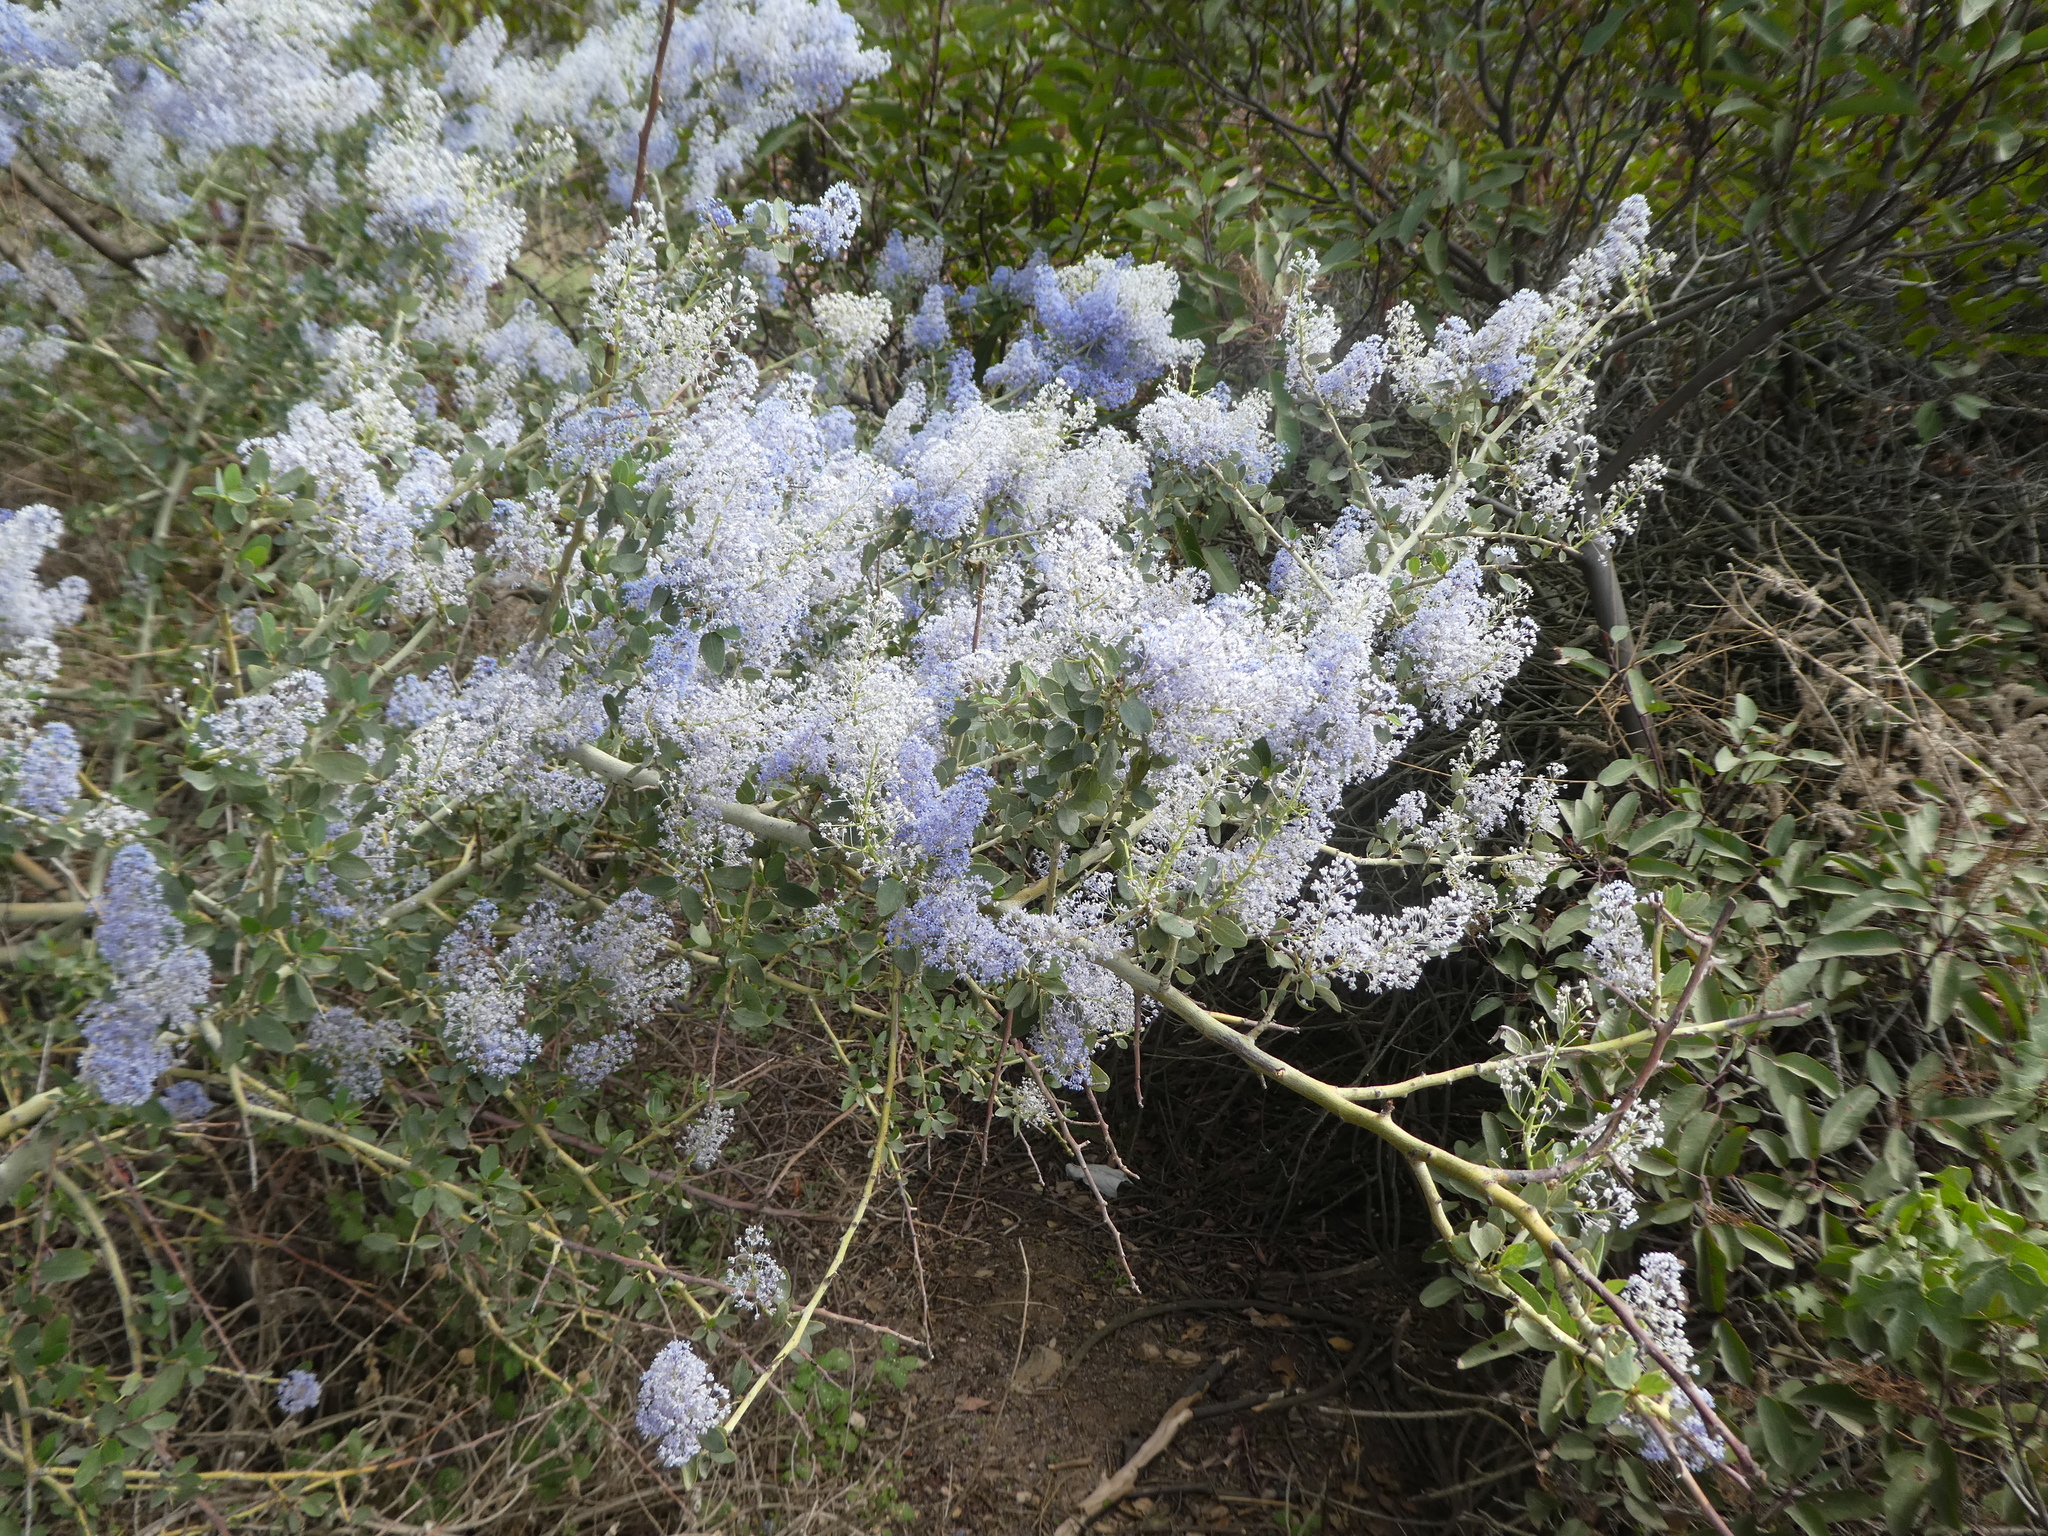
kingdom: Plantae
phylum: Tracheophyta
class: Magnoliopsida
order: Rosales
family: Rhamnaceae
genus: Ceanothus
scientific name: Ceanothus leucodermis
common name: Chaparral whitethorn
